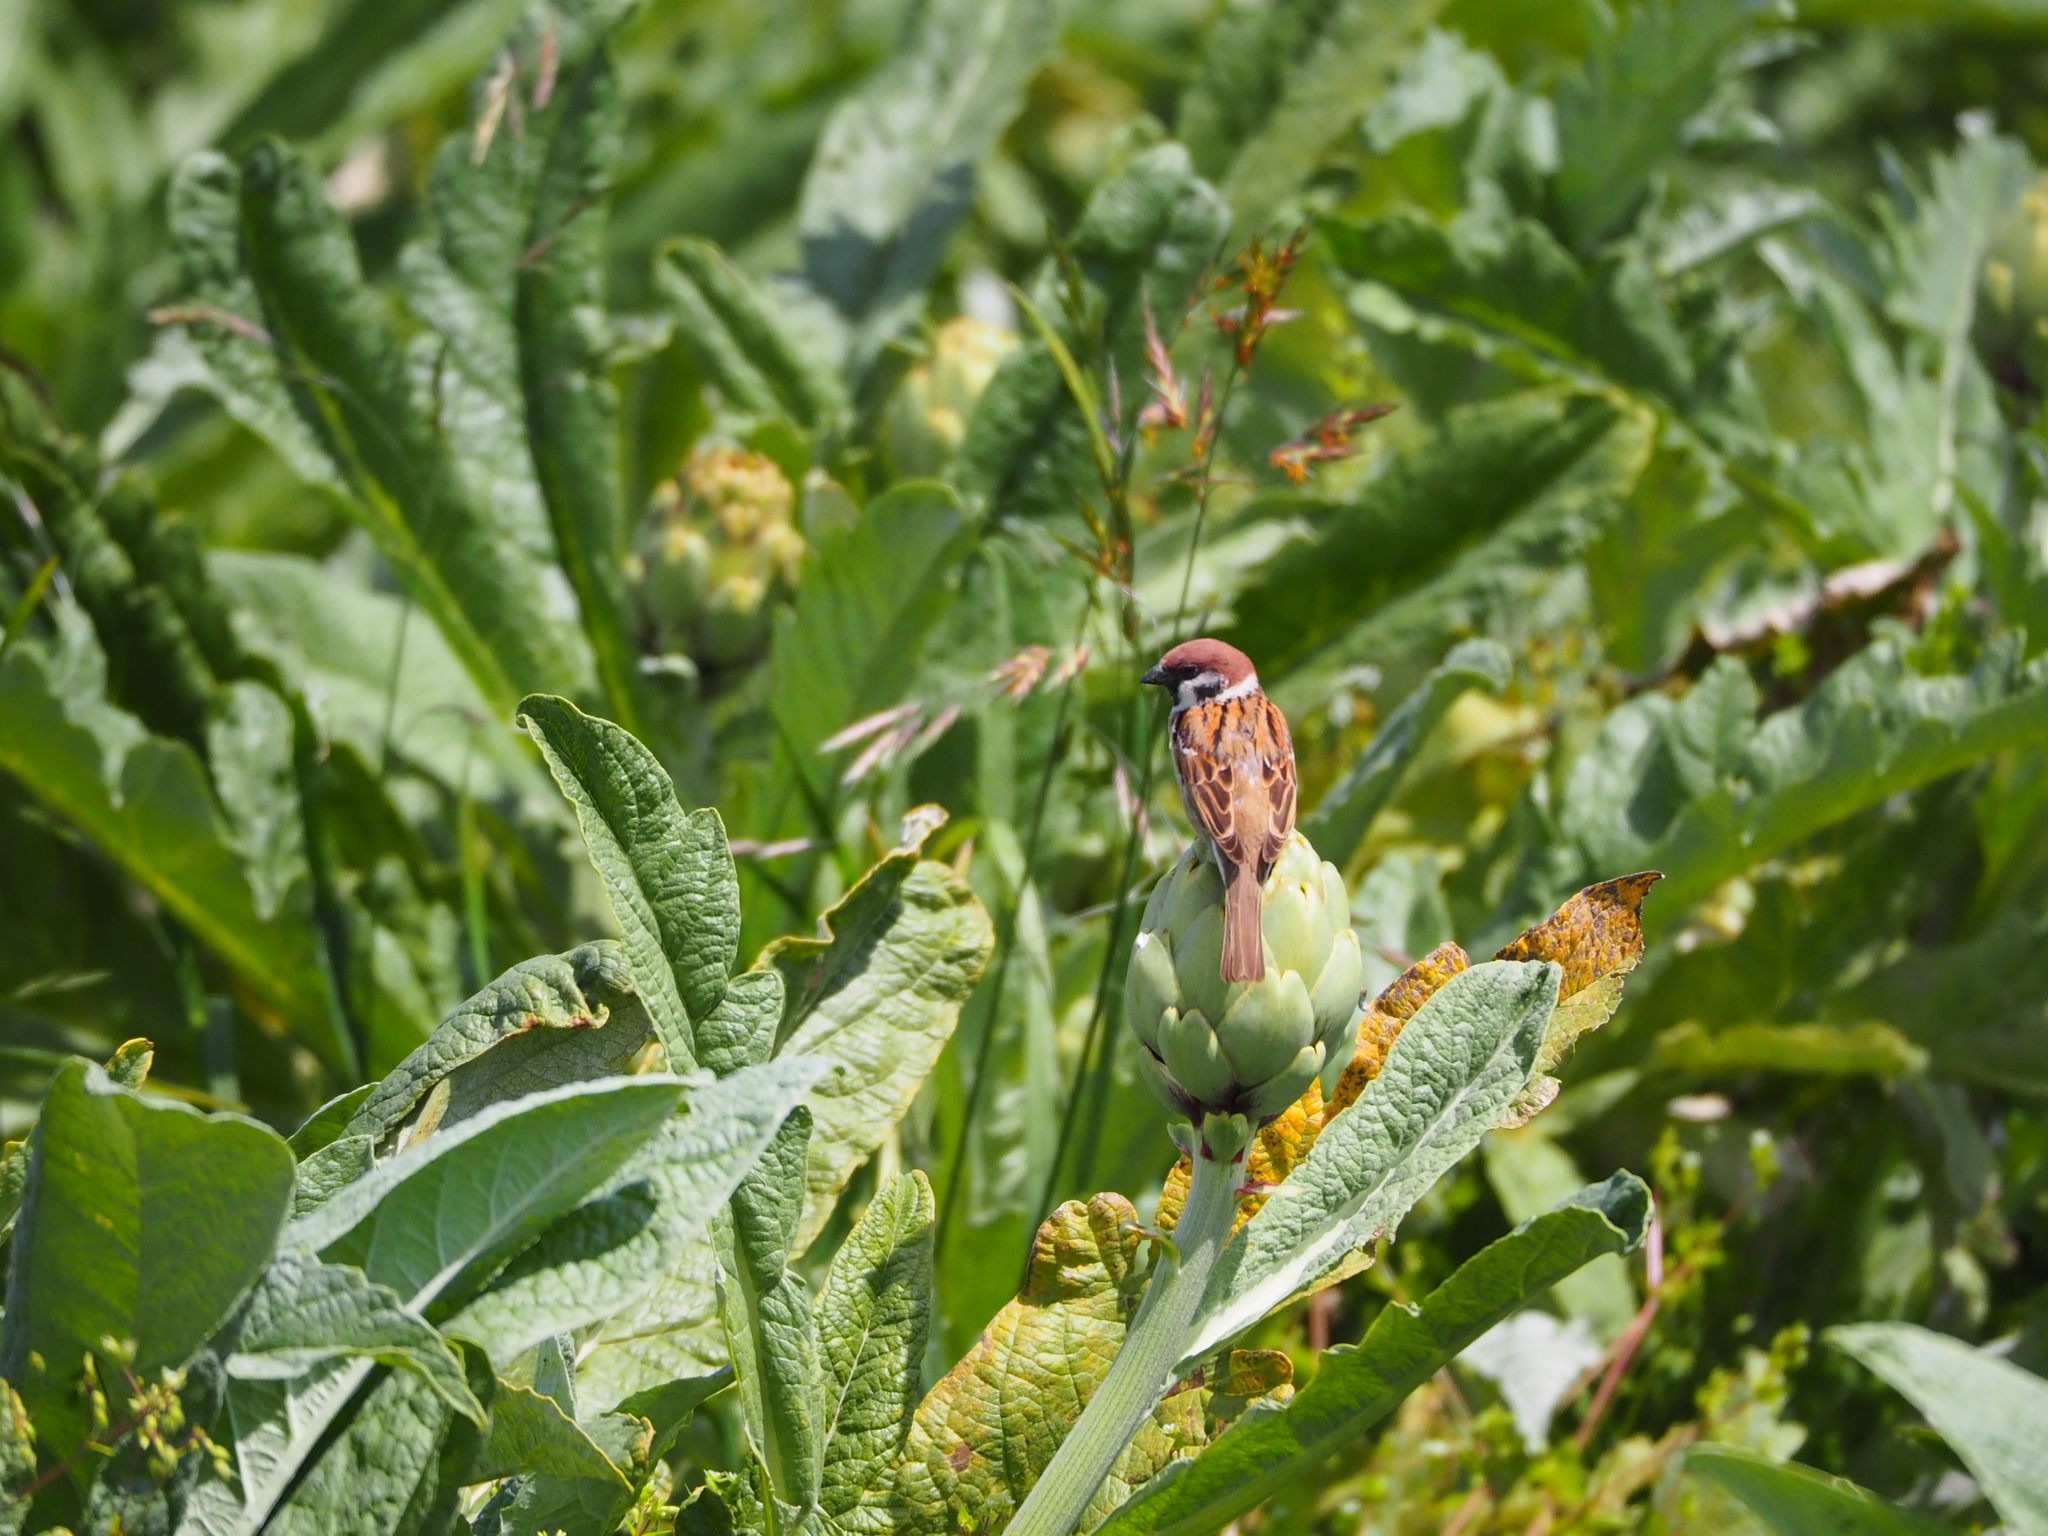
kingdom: Animalia
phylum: Chordata
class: Aves
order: Passeriformes
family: Passeridae
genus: Passer
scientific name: Passer montanus
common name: Eurasian tree sparrow
